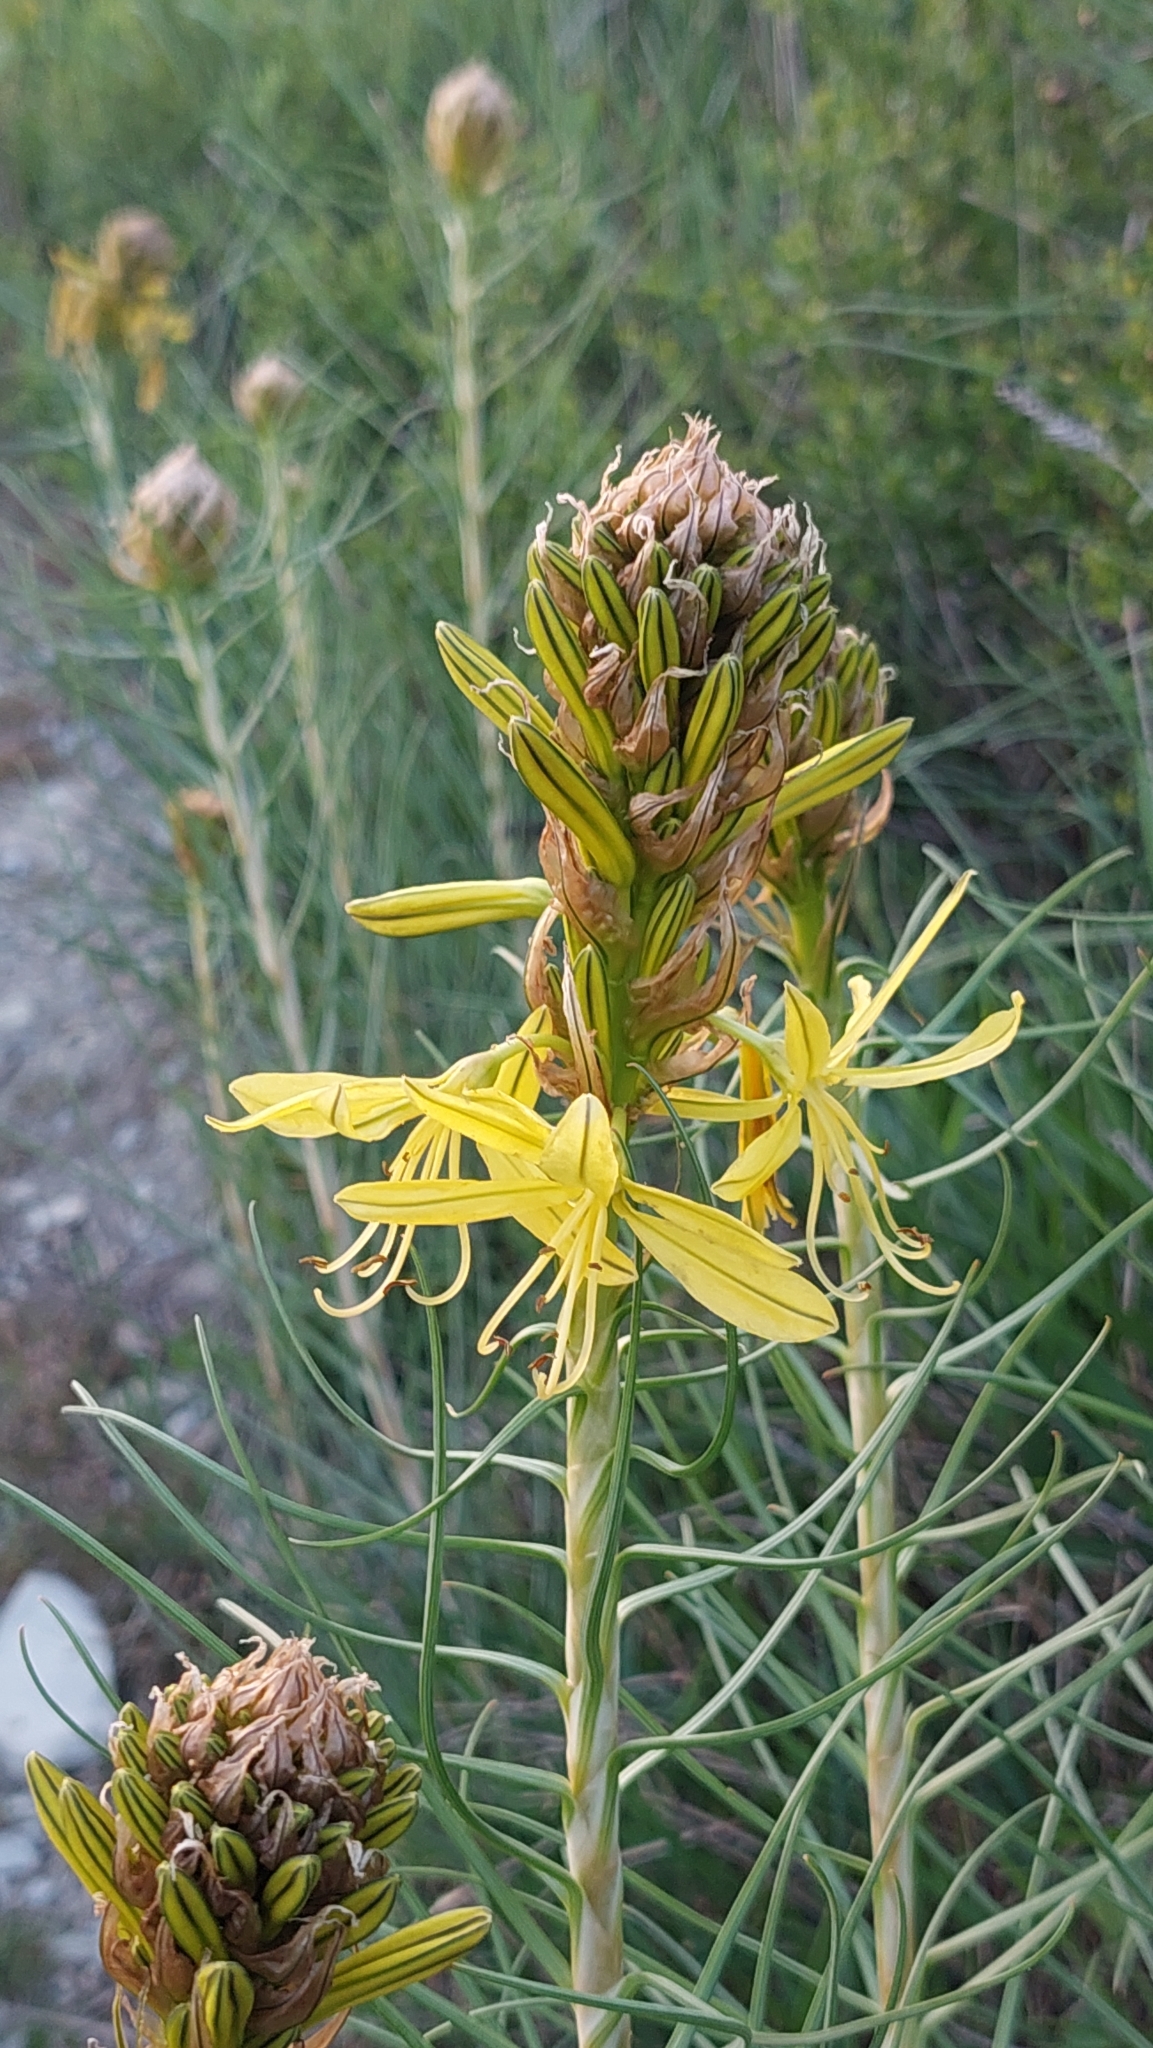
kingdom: Plantae
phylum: Tracheophyta
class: Liliopsida
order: Asparagales
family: Asphodelaceae
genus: Asphodeline
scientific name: Asphodeline lutea
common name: Yellow asphodel
